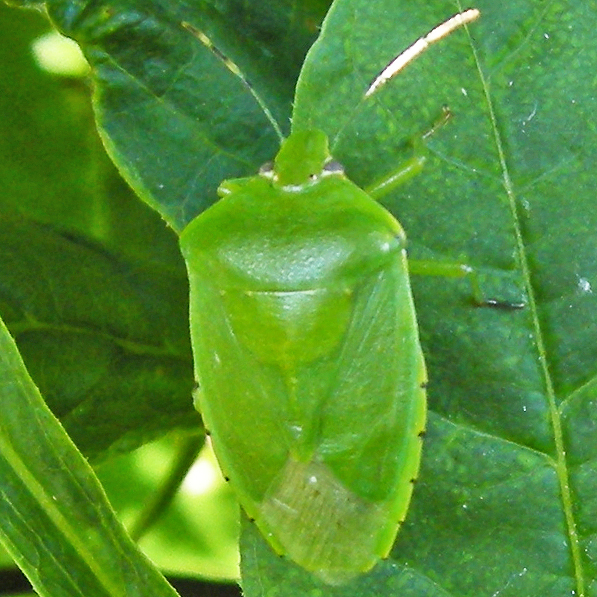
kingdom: Animalia
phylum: Arthropoda
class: Insecta
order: Hemiptera
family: Pentatomidae
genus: Chinavia
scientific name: Chinavia hilaris
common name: Green stink bug
